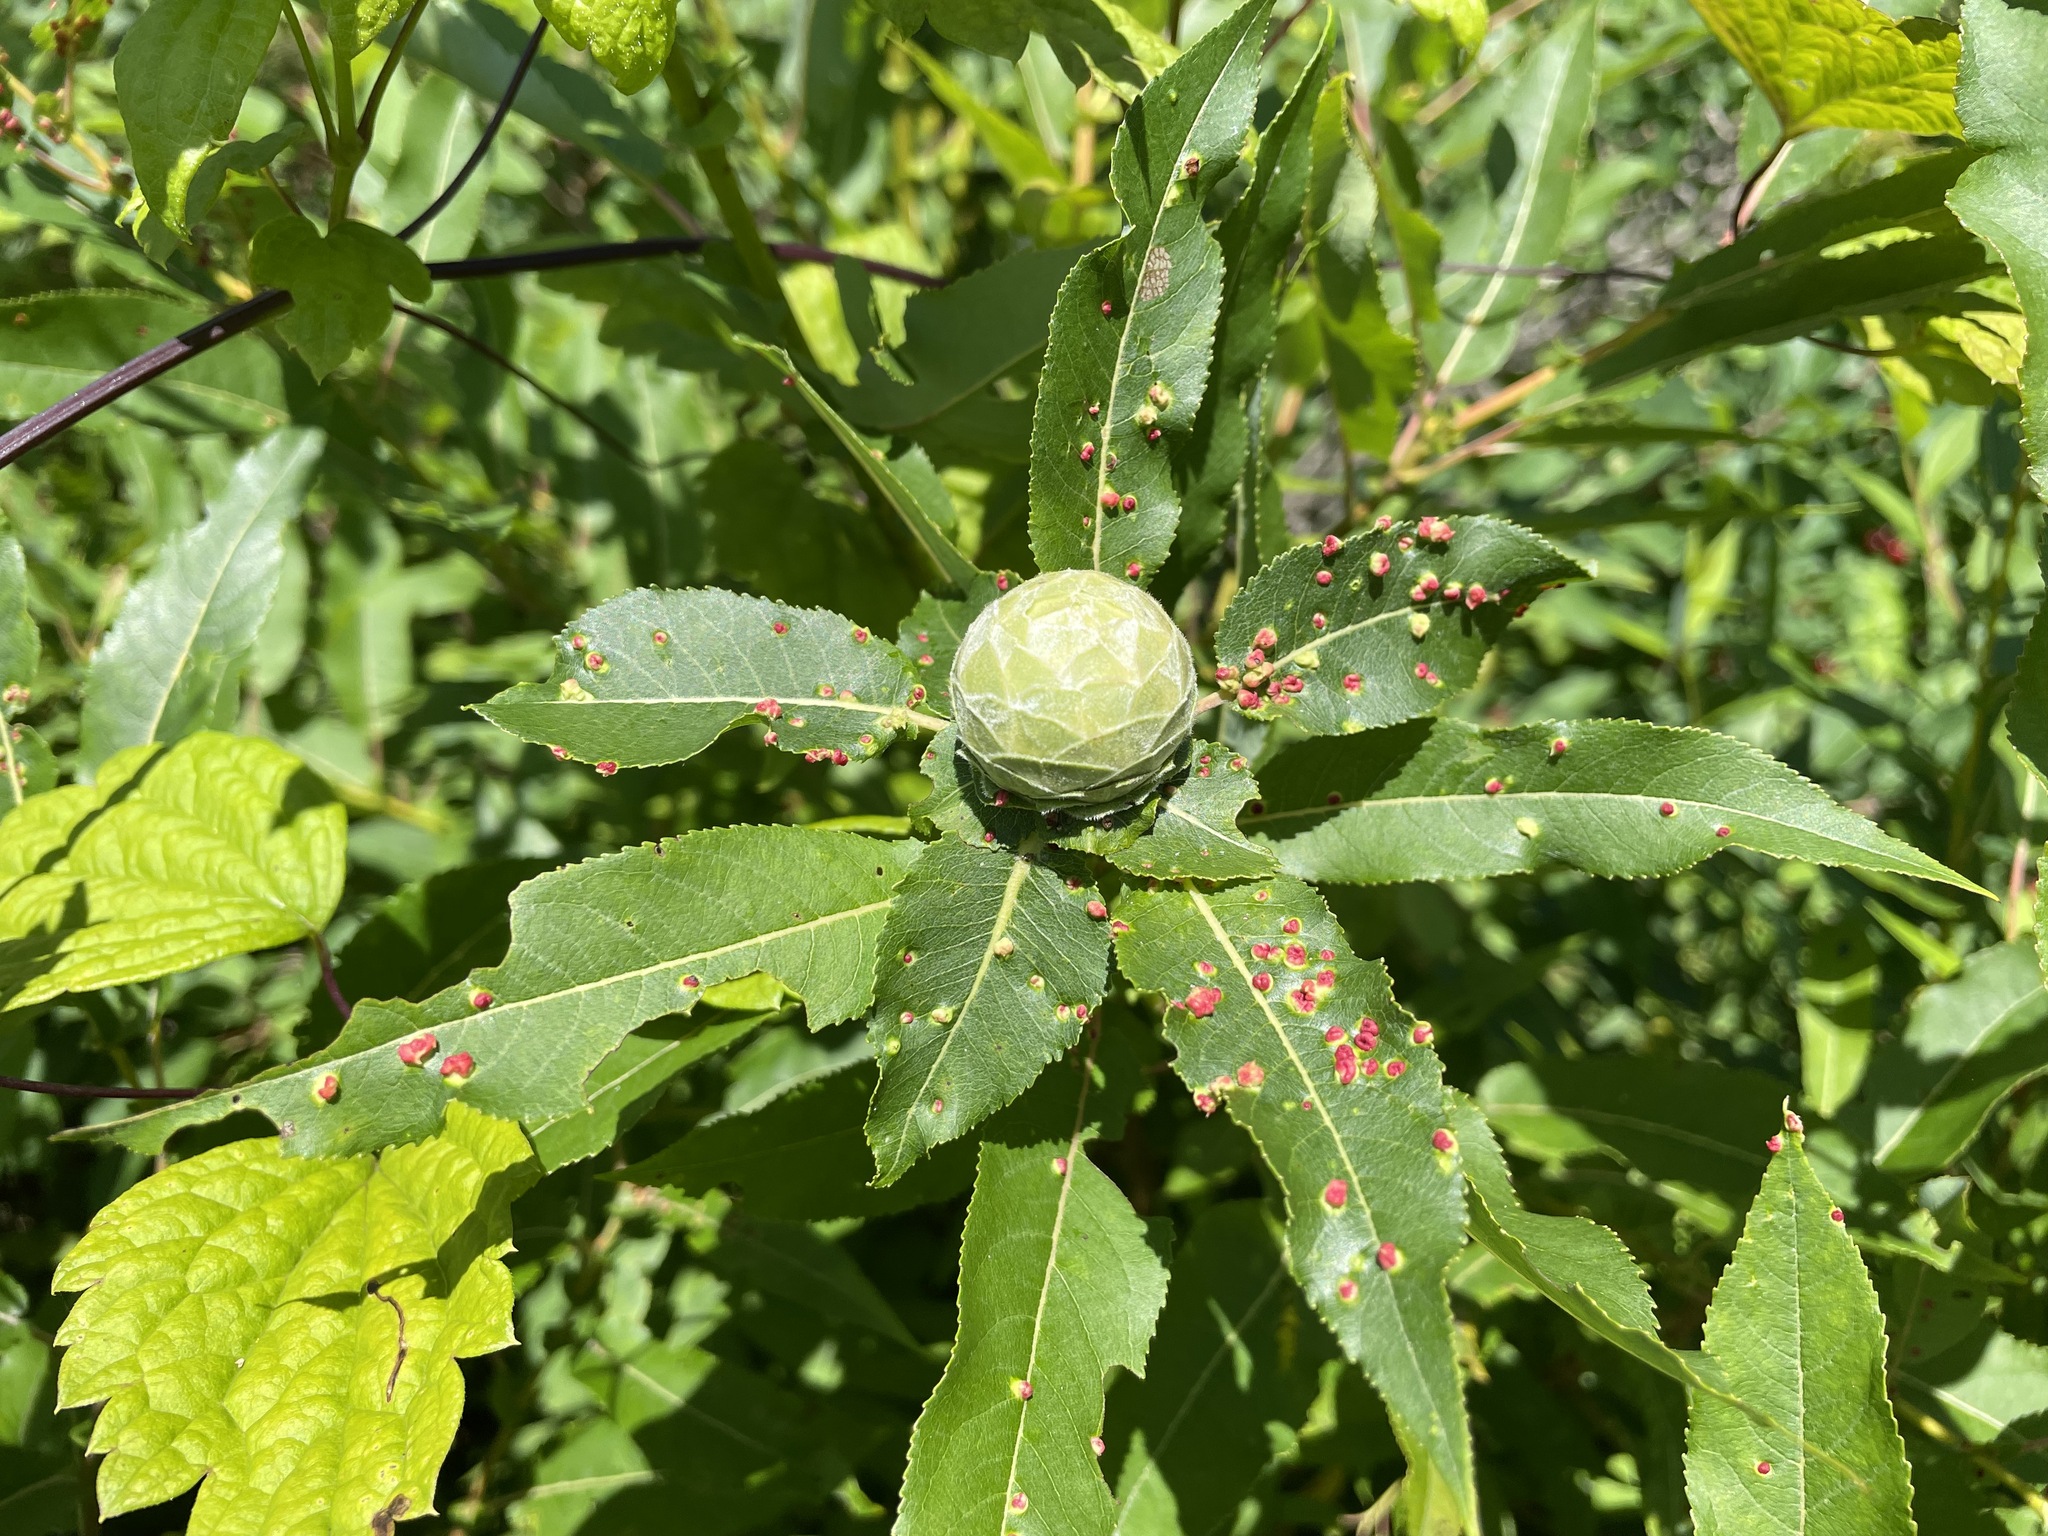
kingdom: Animalia
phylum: Arthropoda
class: Insecta
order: Diptera
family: Cecidomyiidae
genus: Rabdophaga
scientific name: Rabdophaga strobiloides
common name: Willow pinecone gall midge
